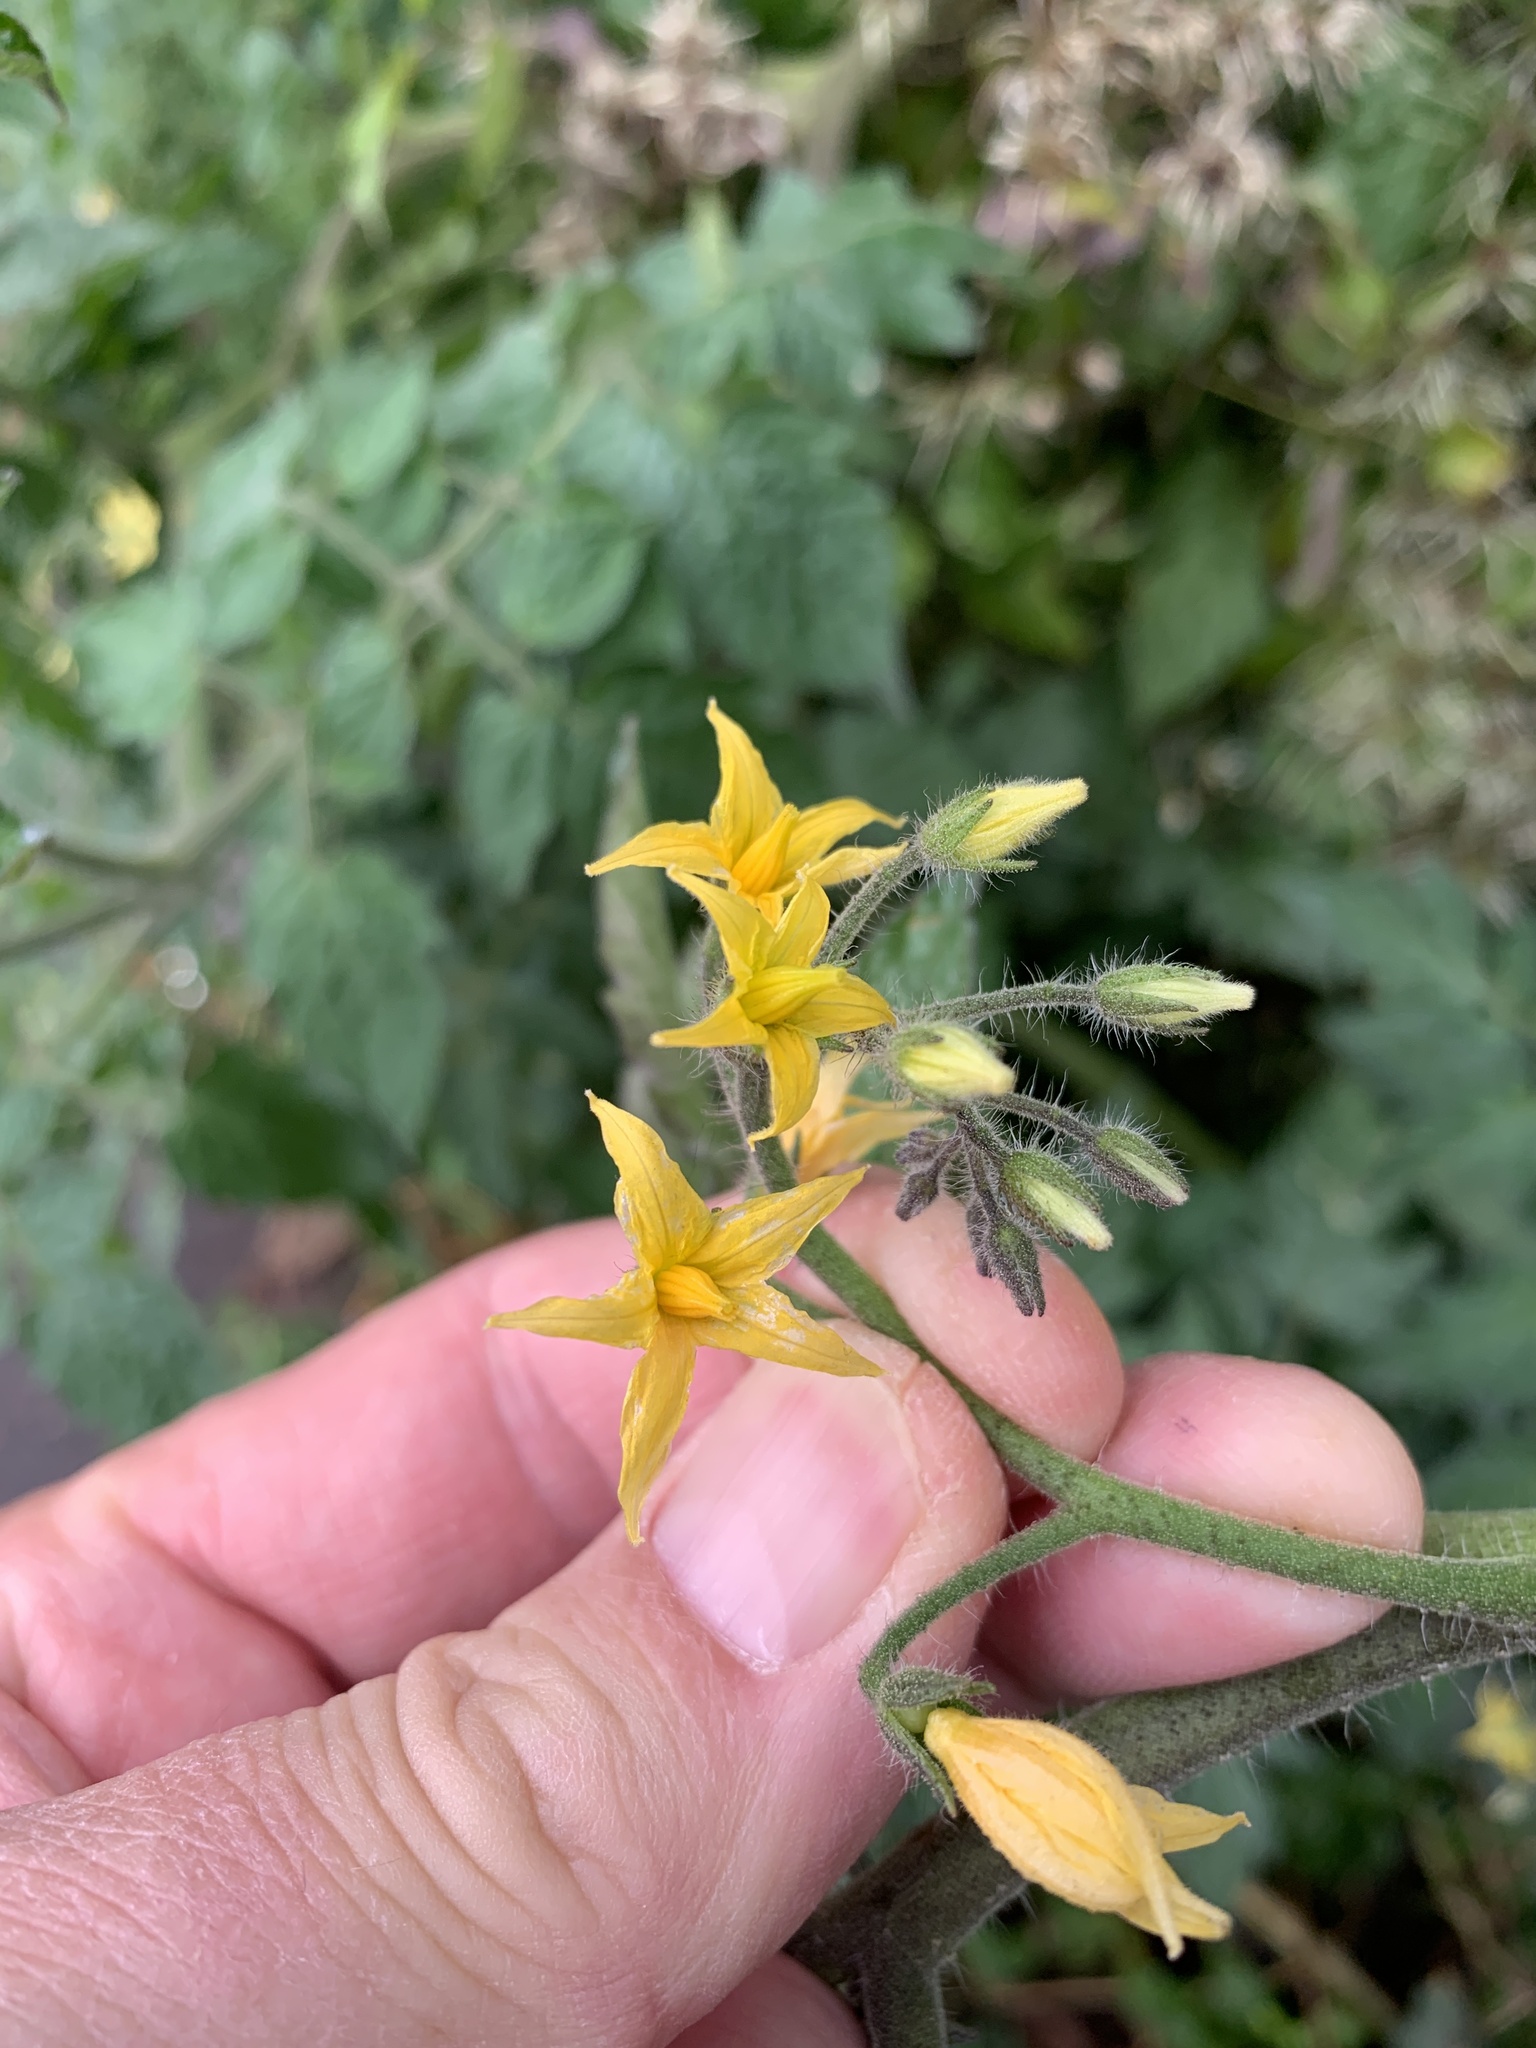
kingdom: Plantae
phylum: Tracheophyta
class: Magnoliopsida
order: Solanales
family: Solanaceae
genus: Solanum
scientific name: Solanum lycopersicum
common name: Garden tomato
